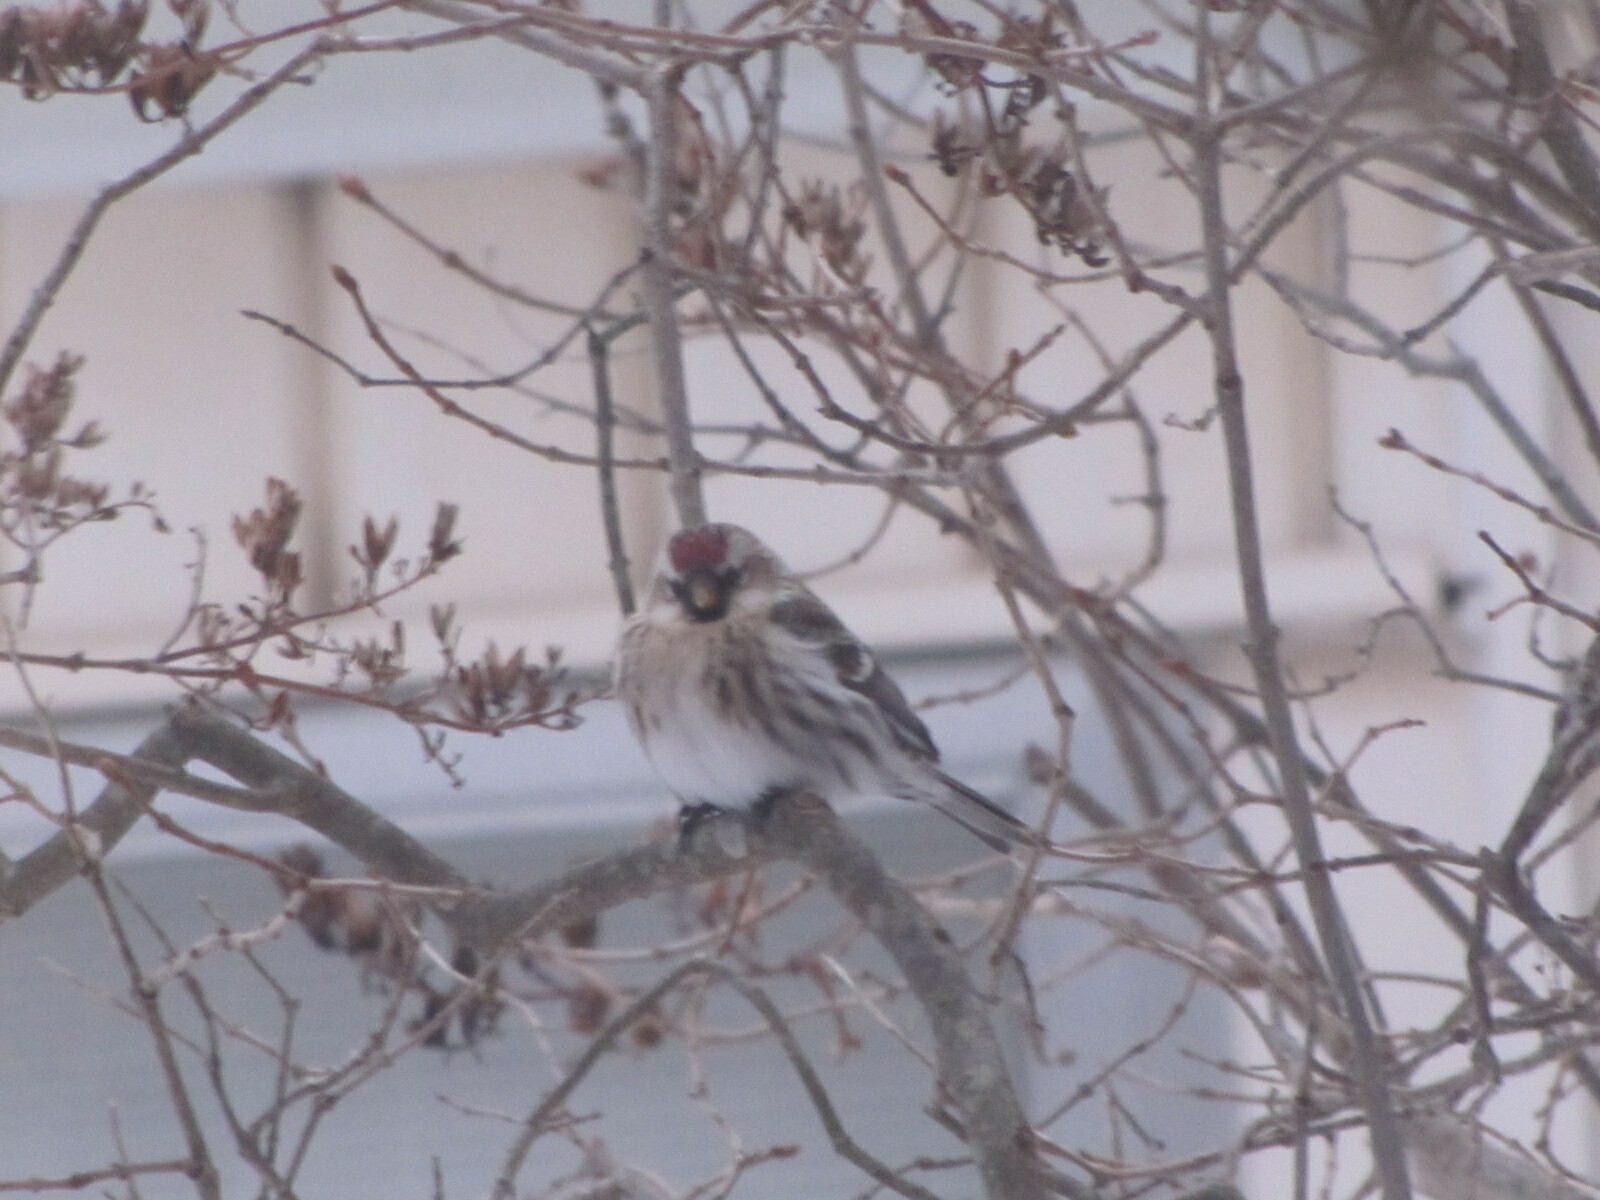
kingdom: Animalia
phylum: Chordata
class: Aves
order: Passeriformes
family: Fringillidae
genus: Acanthis
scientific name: Acanthis flammea
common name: Common redpoll
